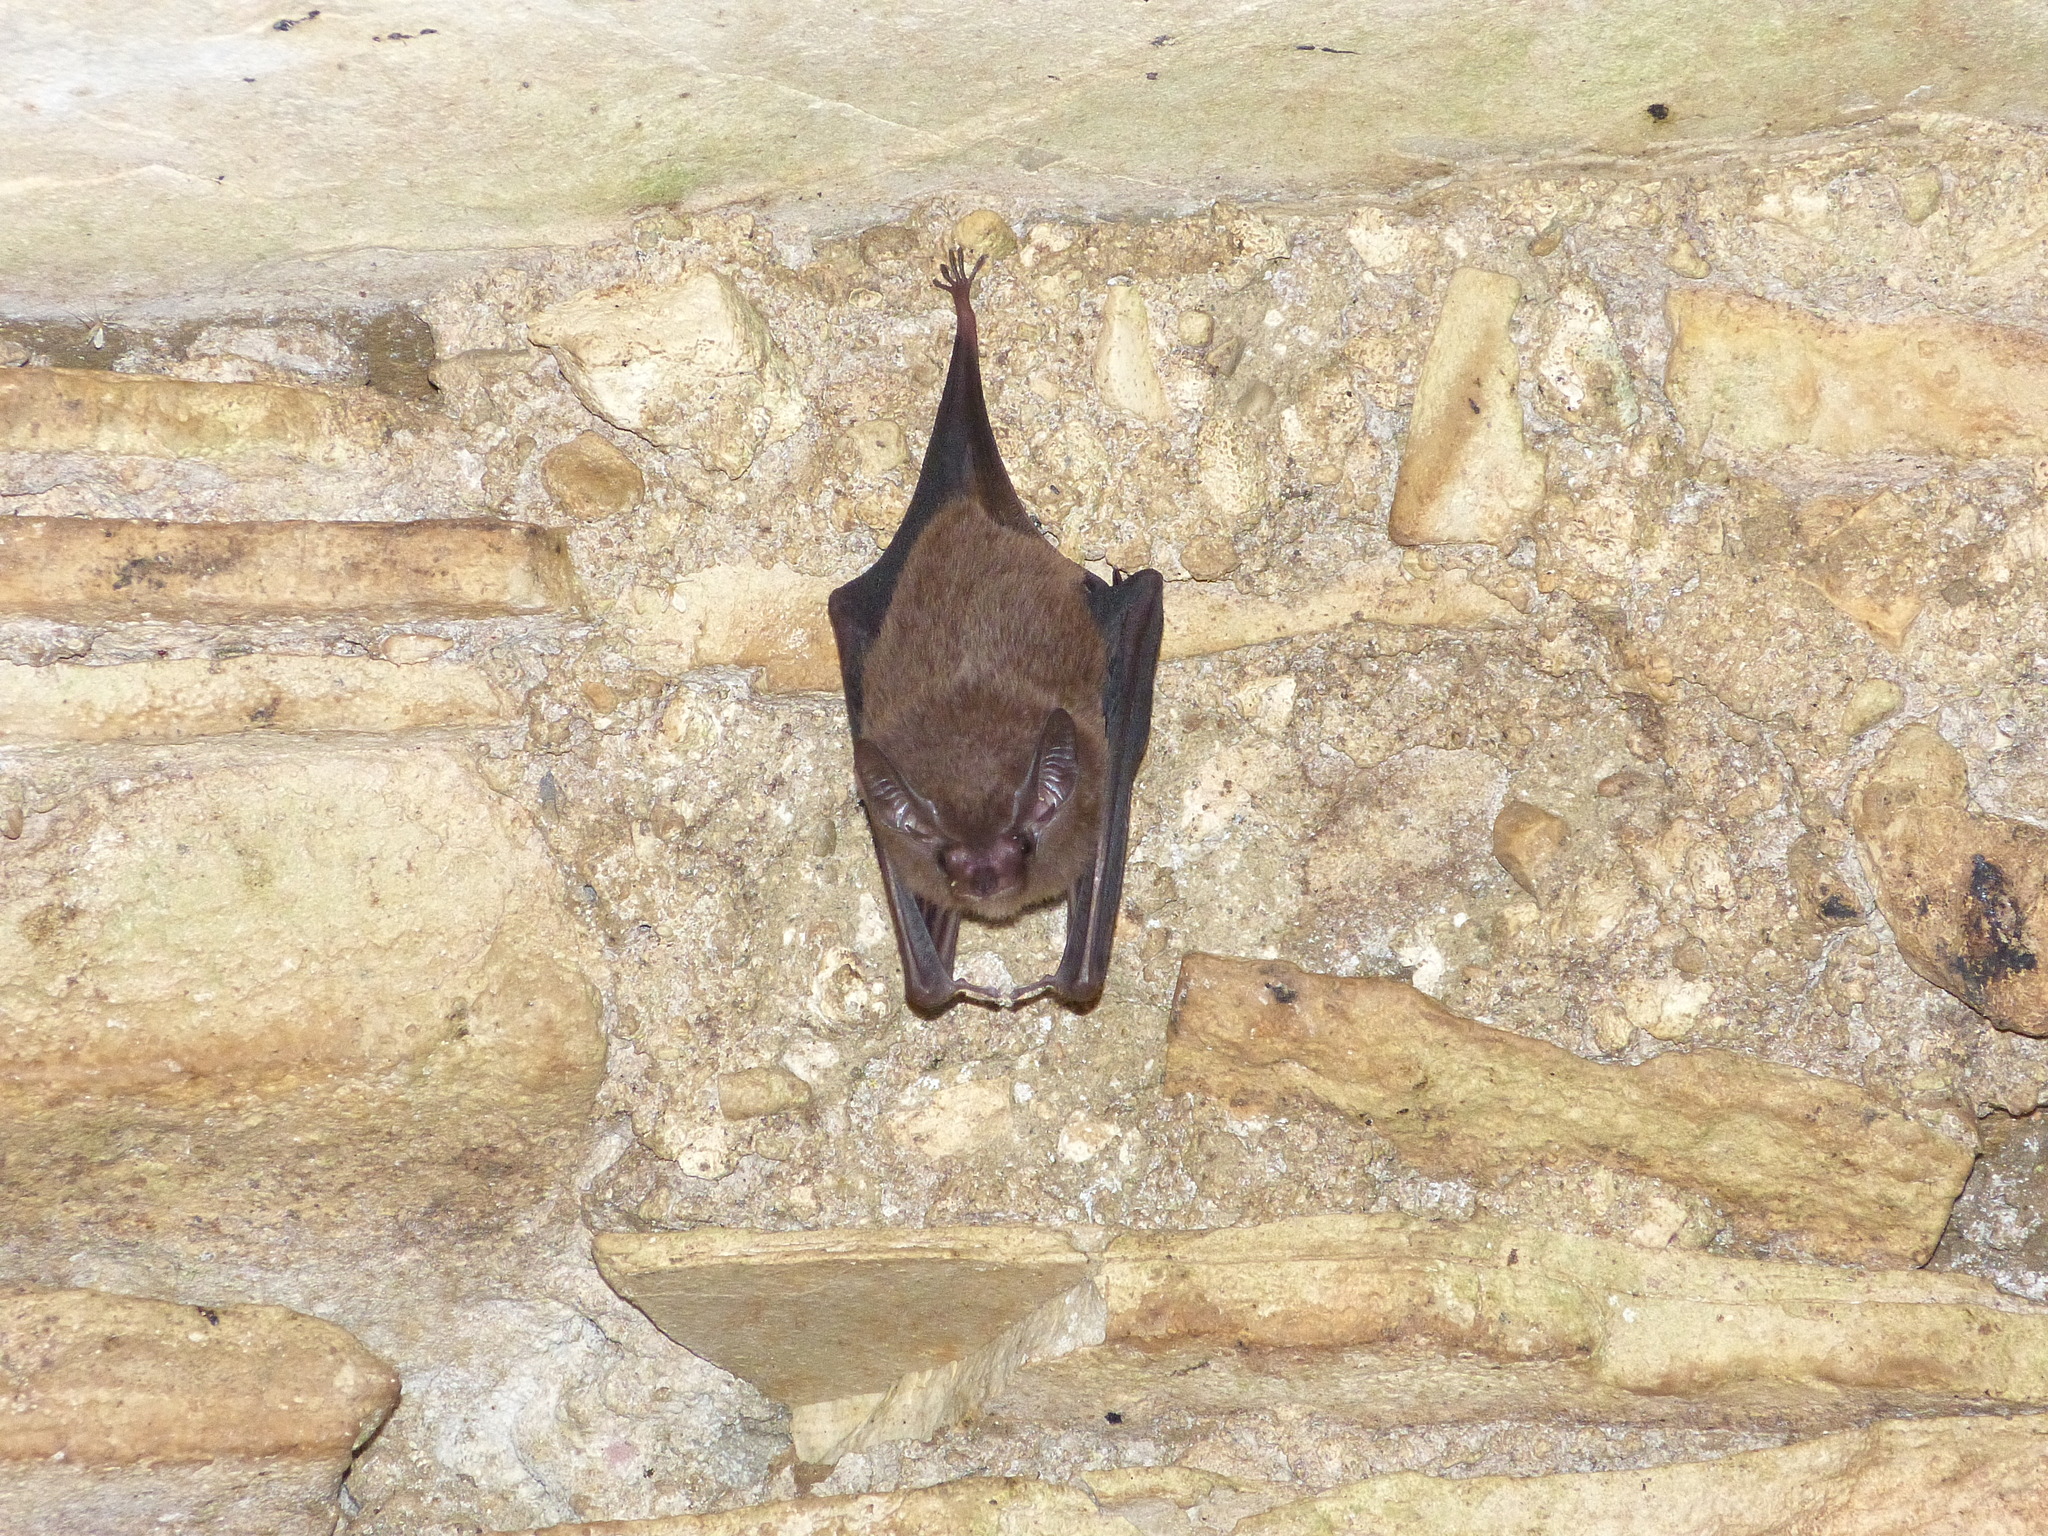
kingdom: Animalia
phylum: Chordata
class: Mammalia
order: Chiroptera
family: Emballonuridae
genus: Peropteryx
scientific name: Peropteryx macrotis
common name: Lesser dog-like bat
